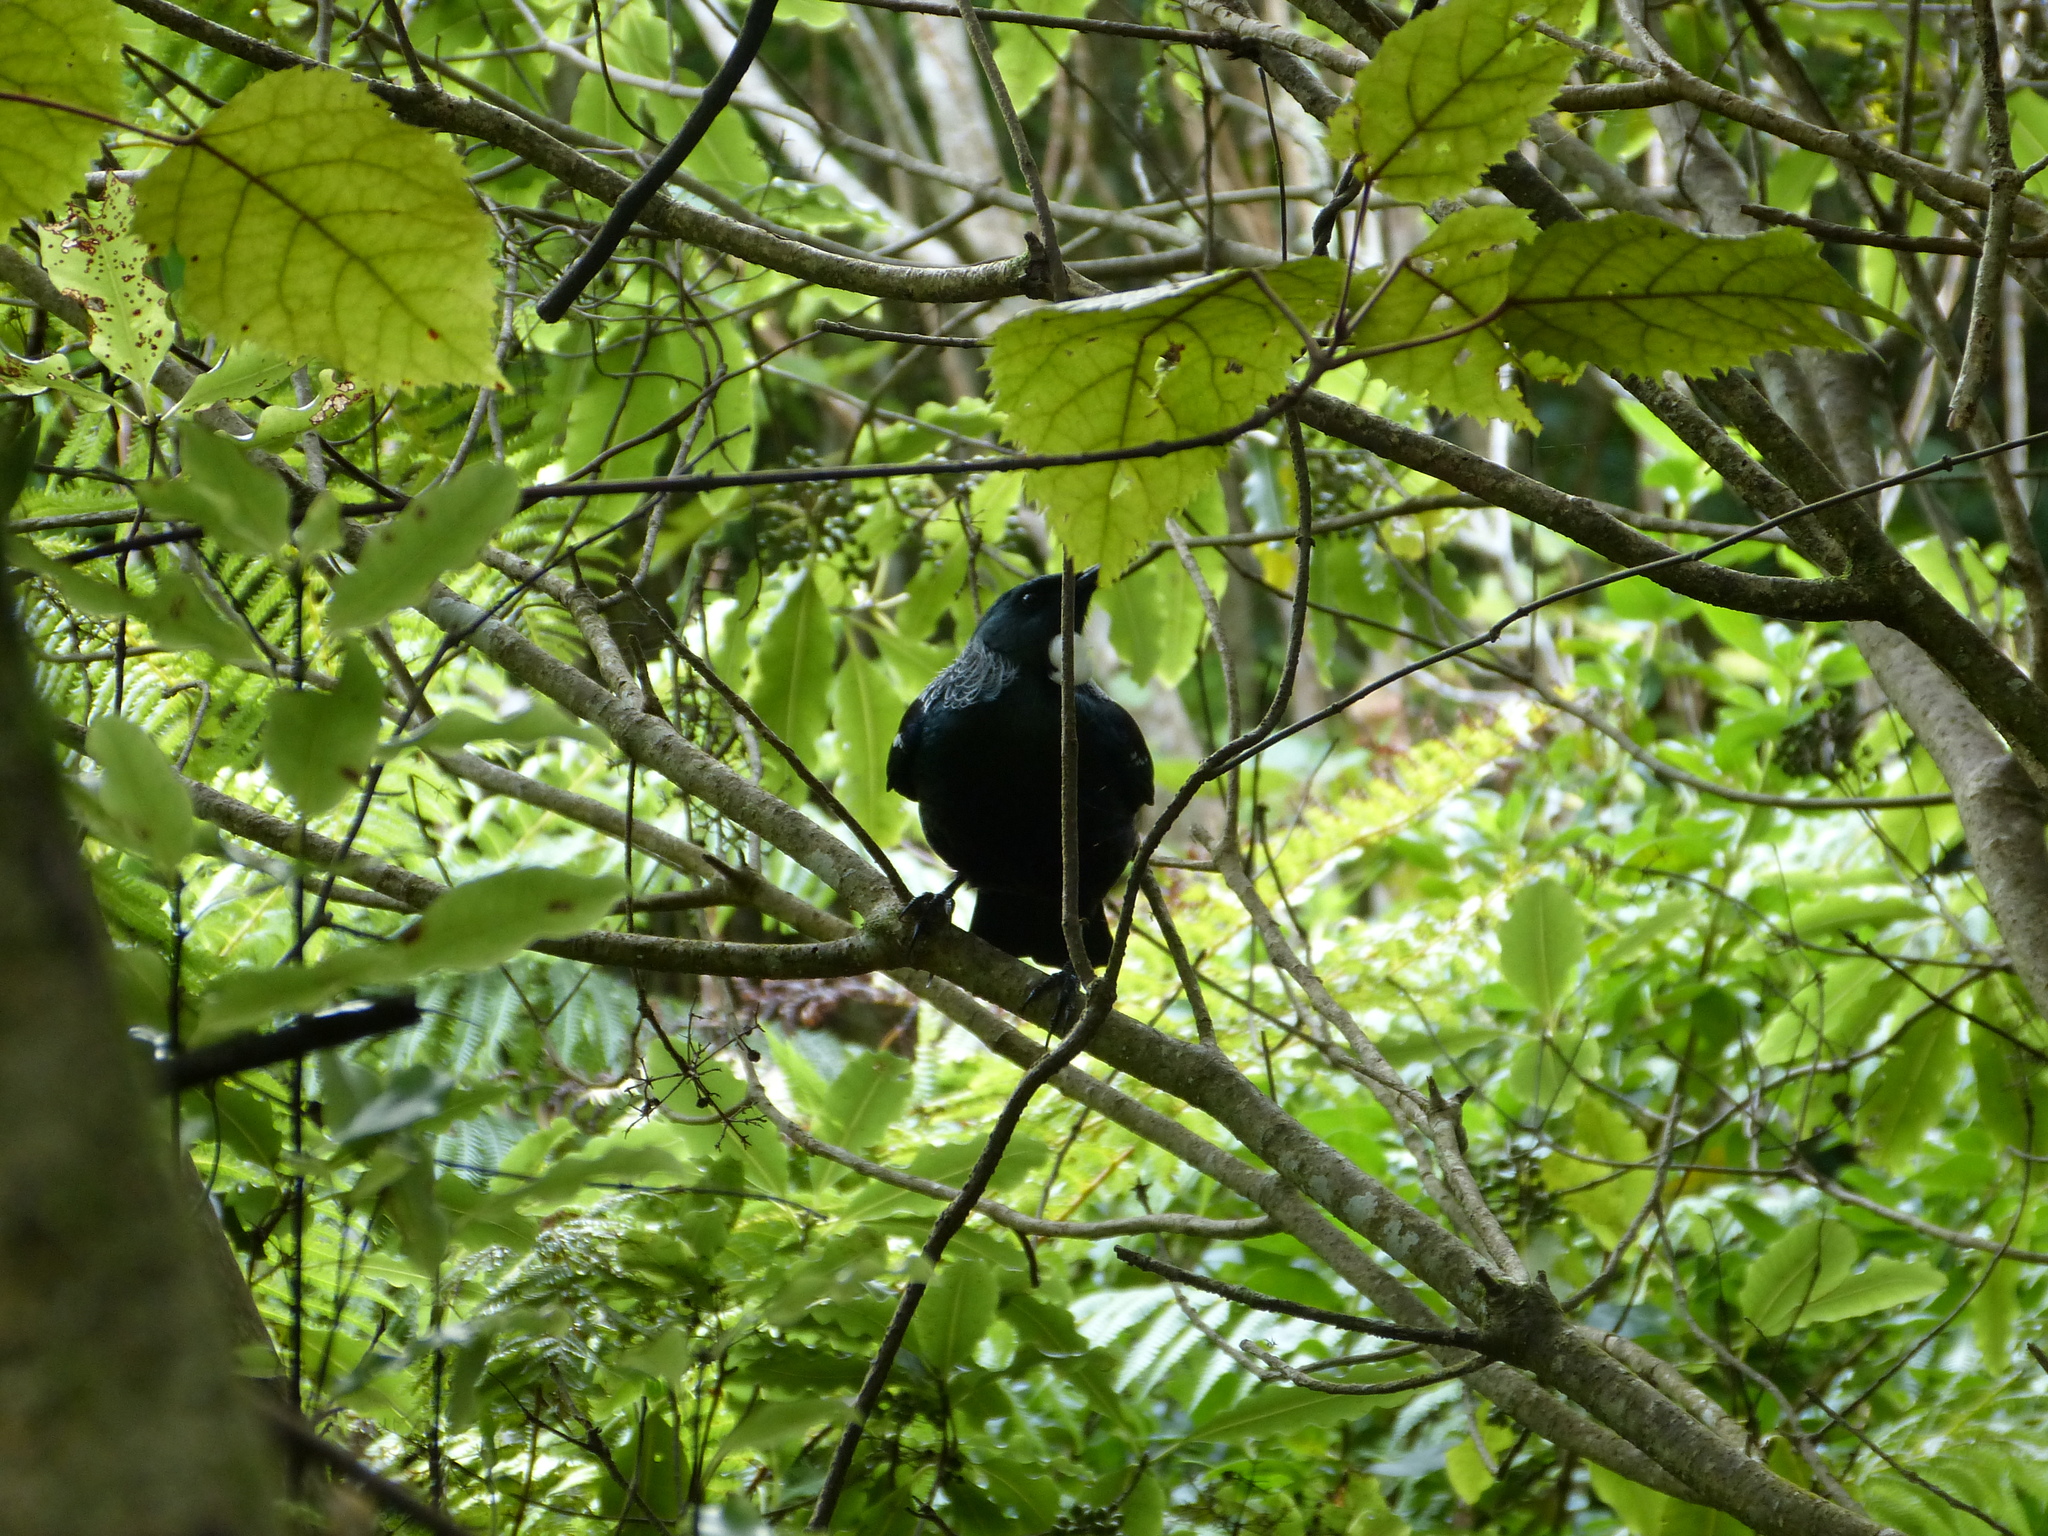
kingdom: Animalia
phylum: Chordata
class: Aves
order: Passeriformes
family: Meliphagidae
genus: Prosthemadera
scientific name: Prosthemadera novaeseelandiae
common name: Tui
